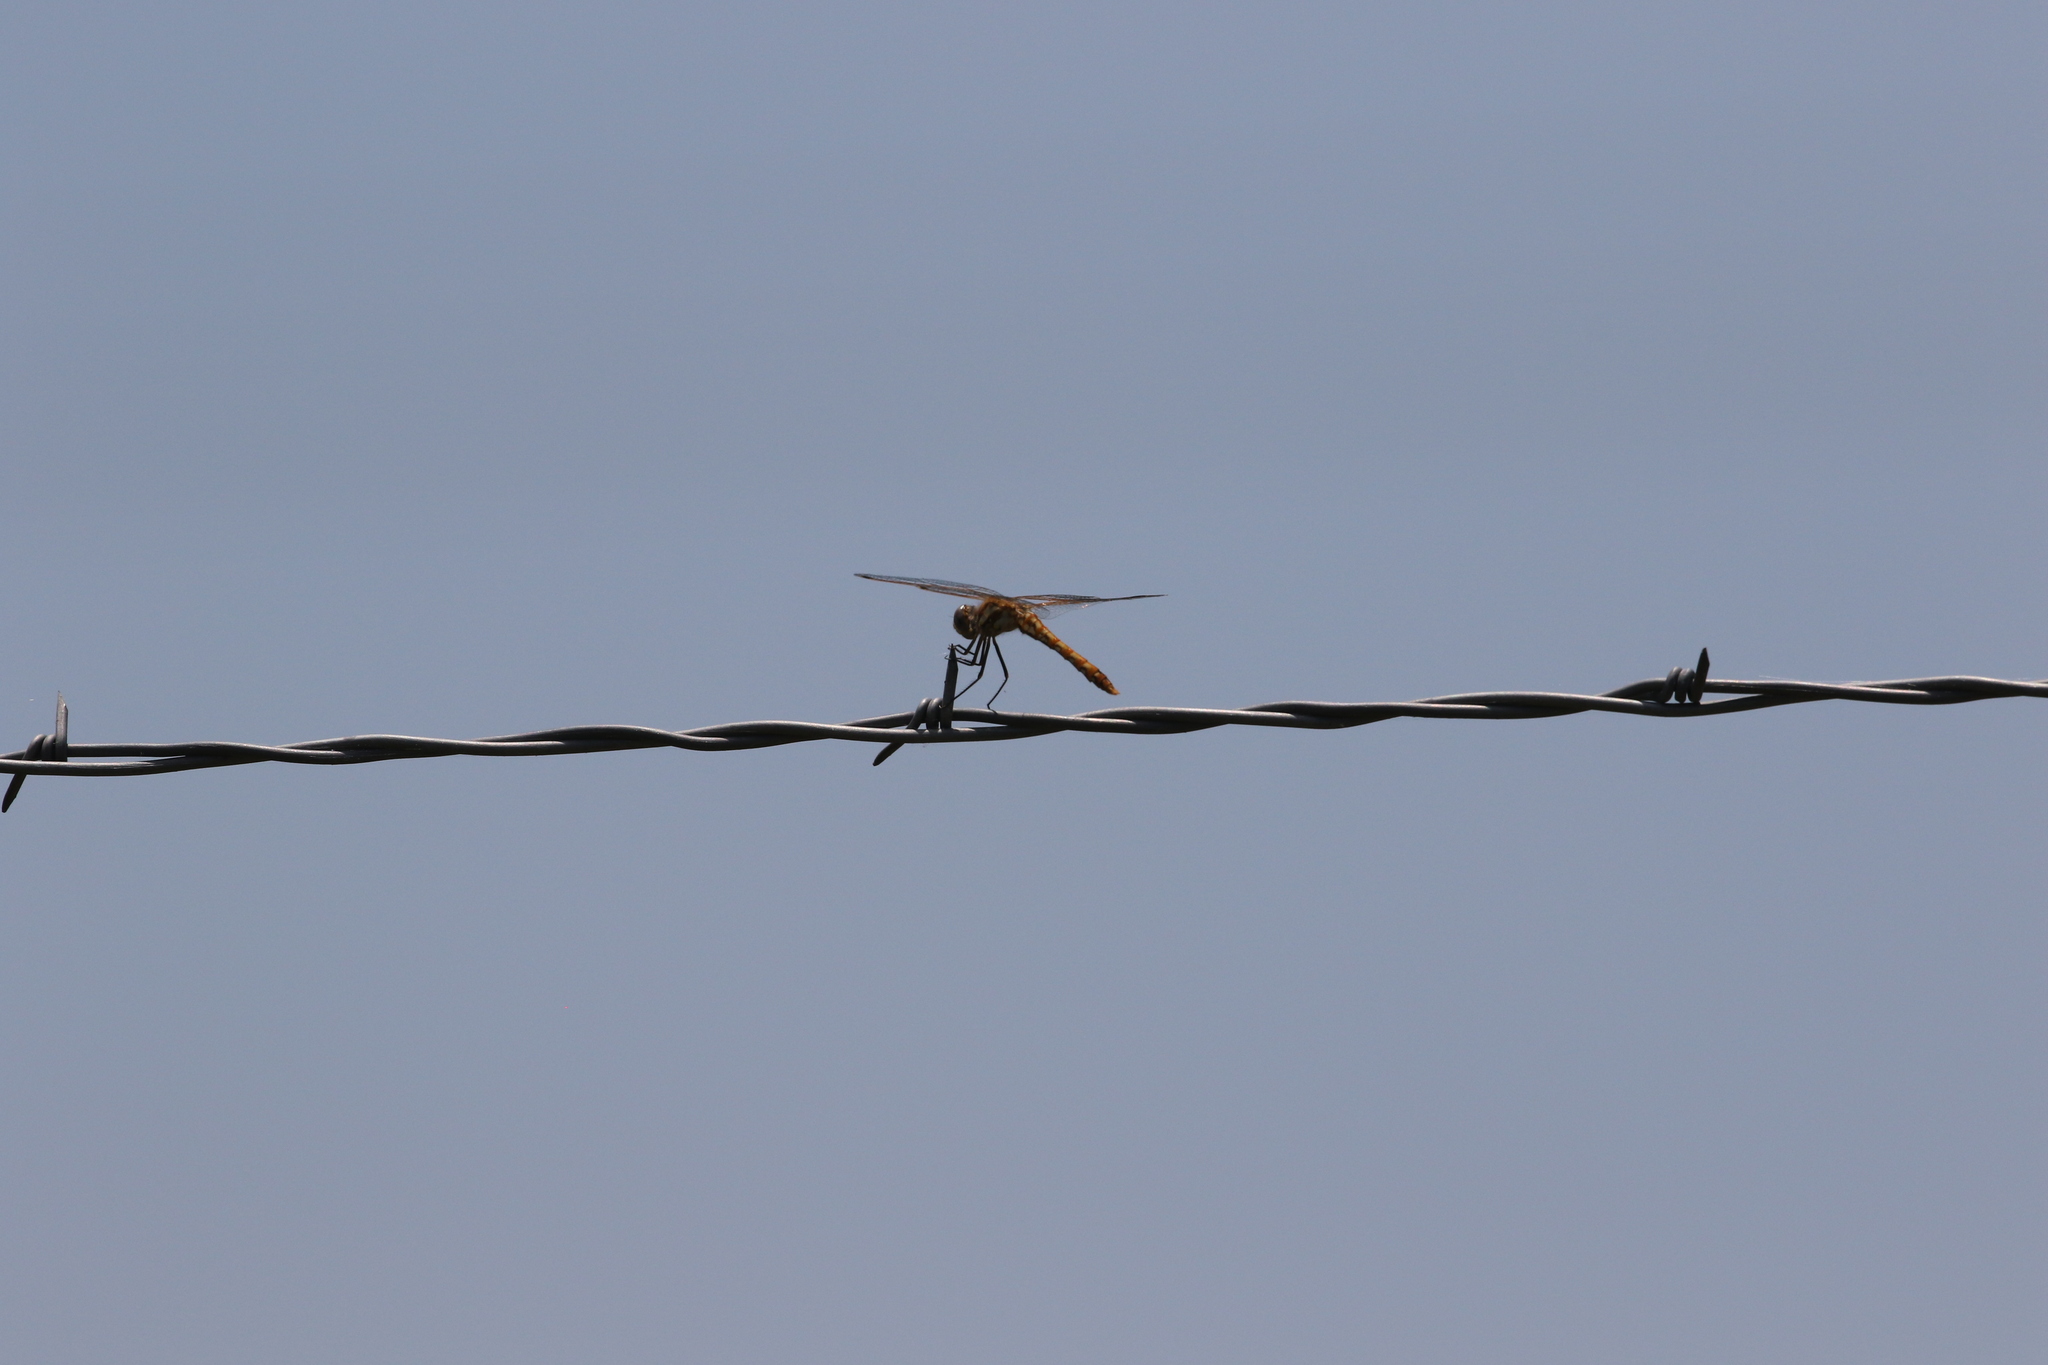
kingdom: Animalia
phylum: Arthropoda
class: Insecta
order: Odonata
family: Libellulidae
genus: Sympetrum
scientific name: Sympetrum corruptum
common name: Variegated meadowhawk
